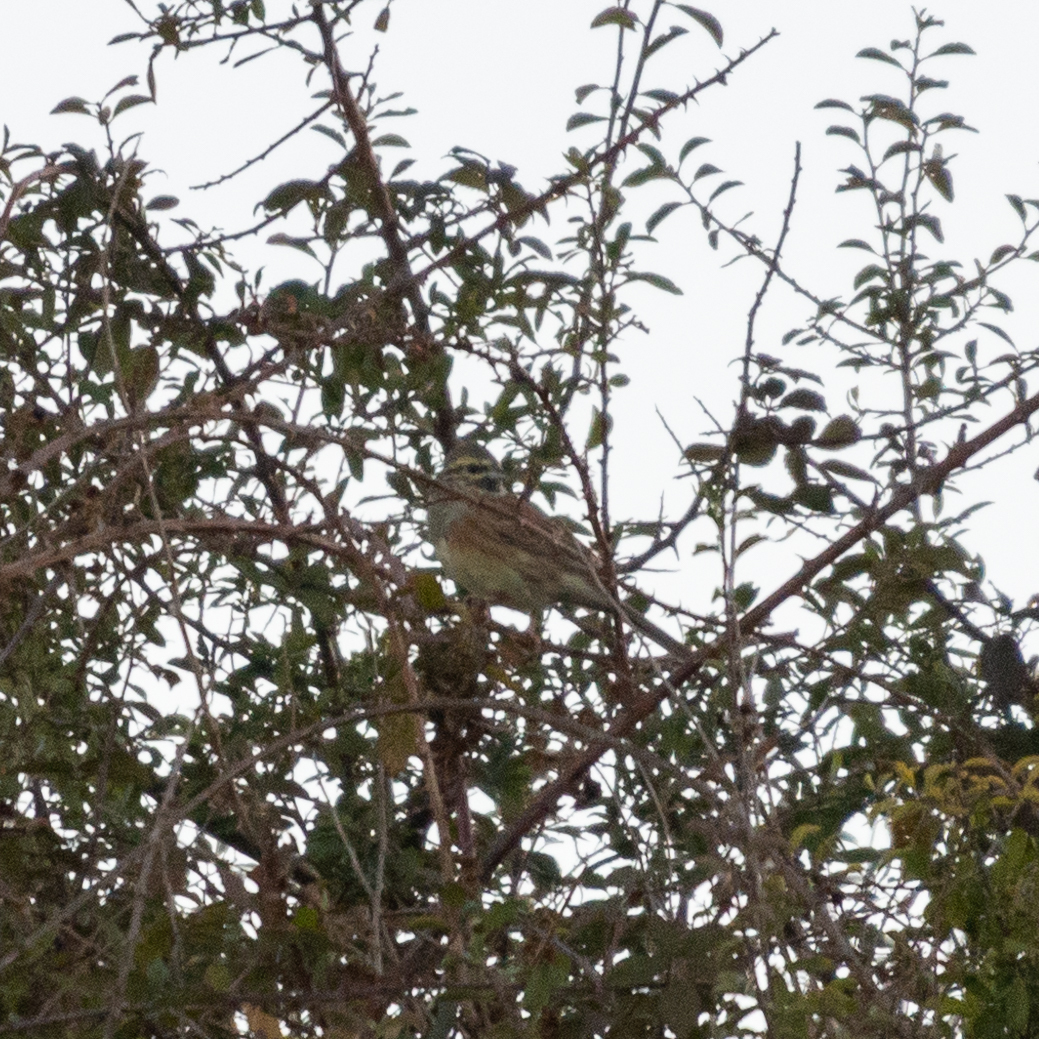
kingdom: Animalia
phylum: Chordata
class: Aves
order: Passeriformes
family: Emberizidae
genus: Emberiza
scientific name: Emberiza cirlus
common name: Cirl bunting
